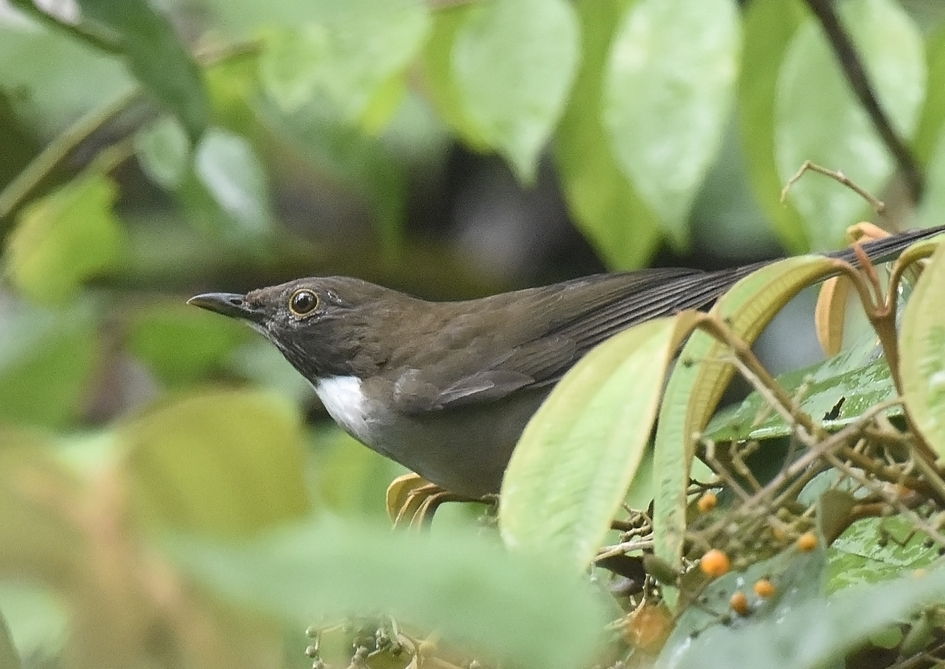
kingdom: Animalia
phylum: Chordata
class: Aves
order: Passeriformes
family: Turdidae
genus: Turdus
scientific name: Turdus albicollis
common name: White-necked thrush
